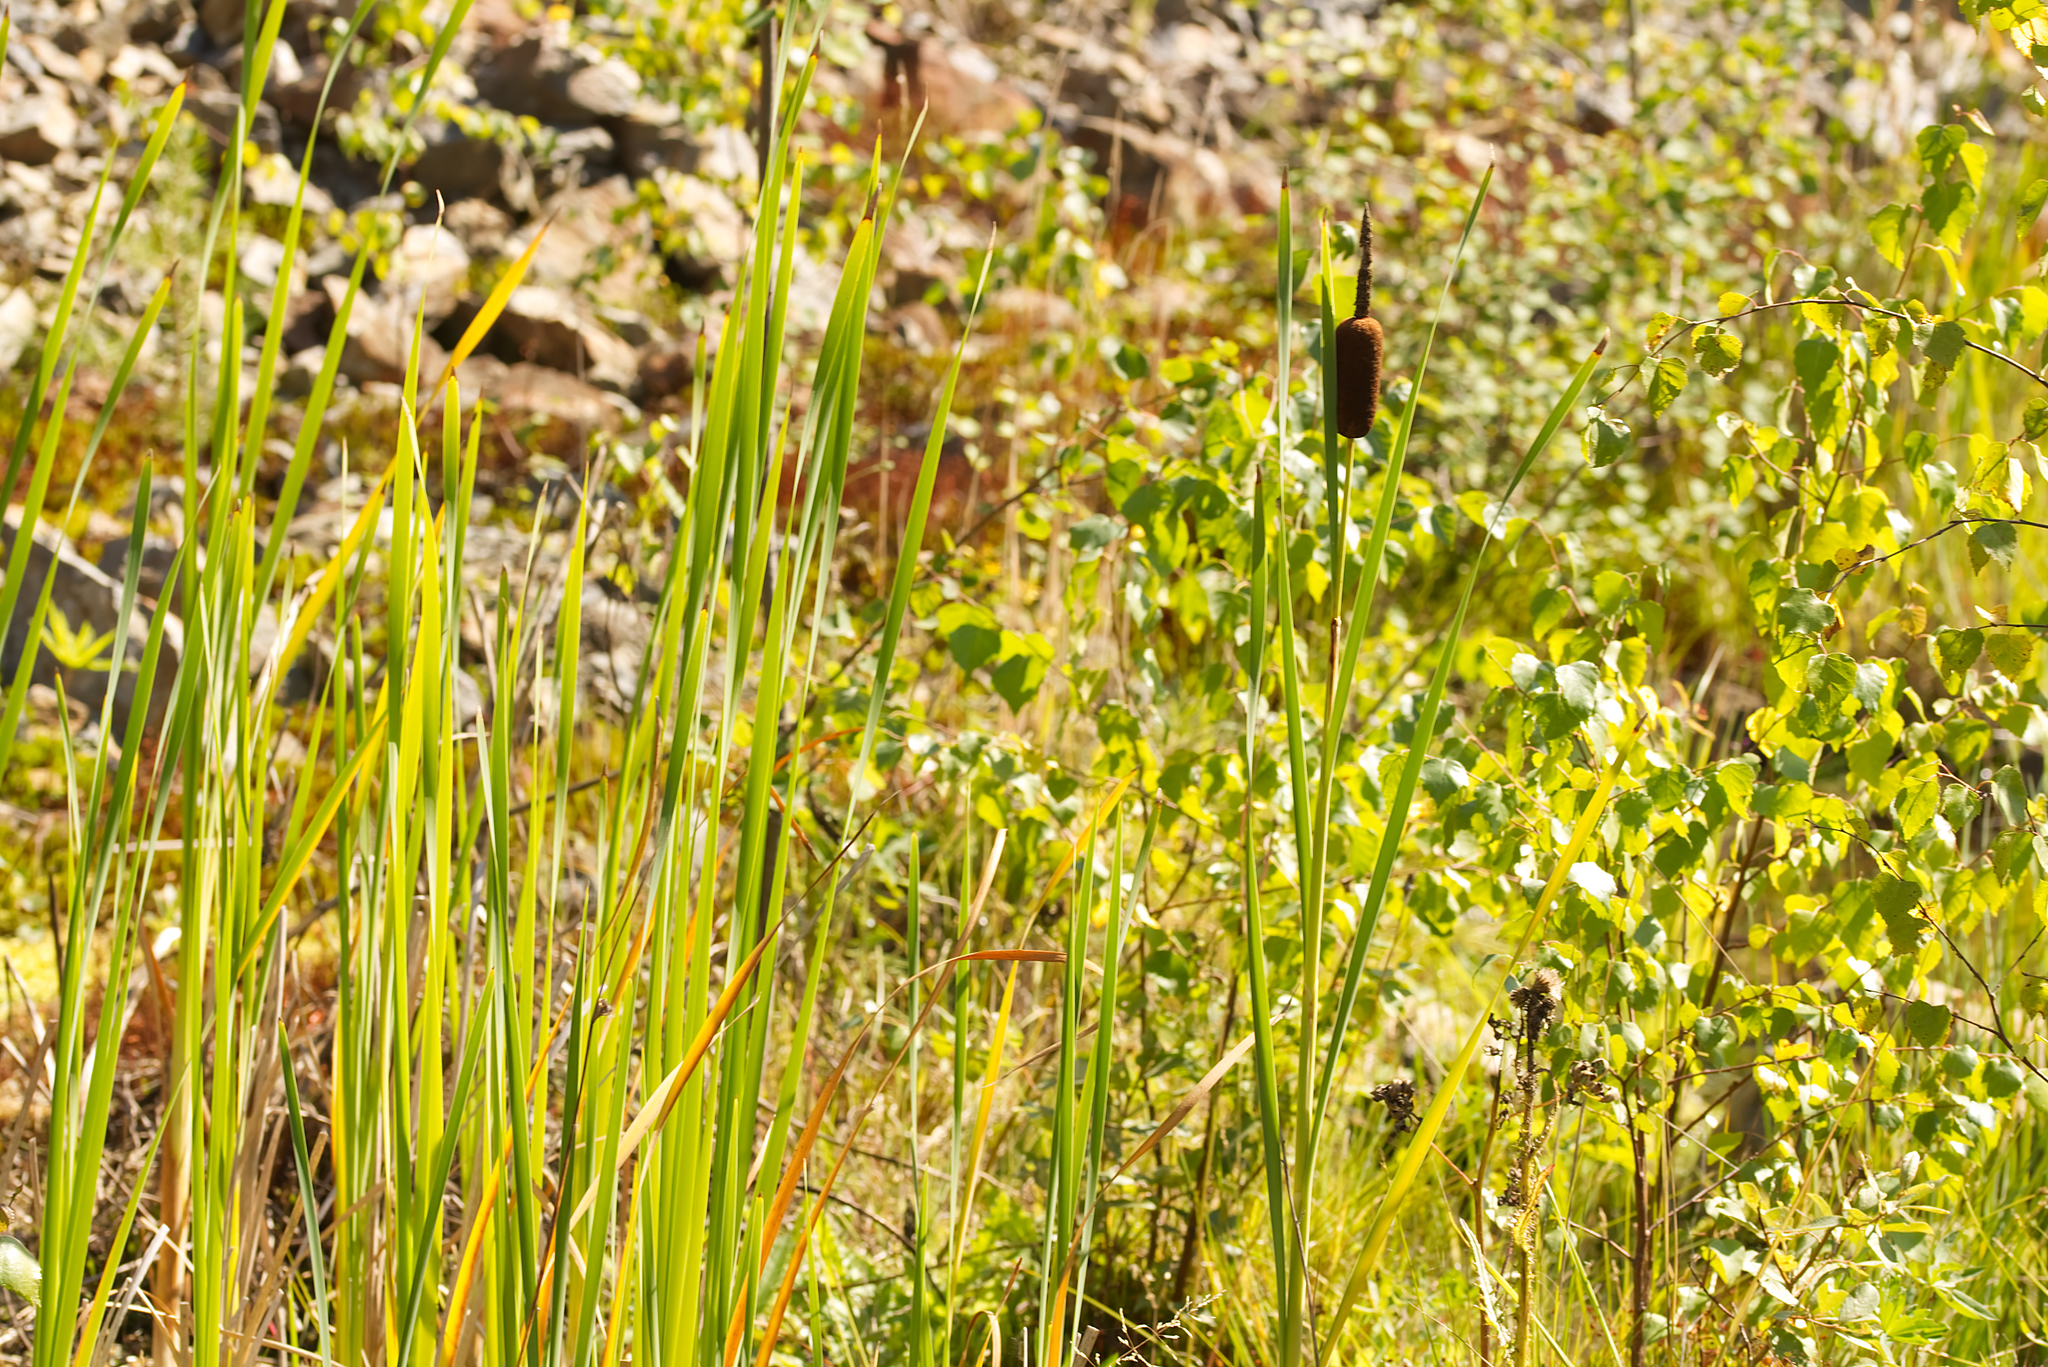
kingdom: Plantae
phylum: Tracheophyta
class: Liliopsida
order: Poales
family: Typhaceae
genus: Typha
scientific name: Typha latifolia
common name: Broadleaf cattail
